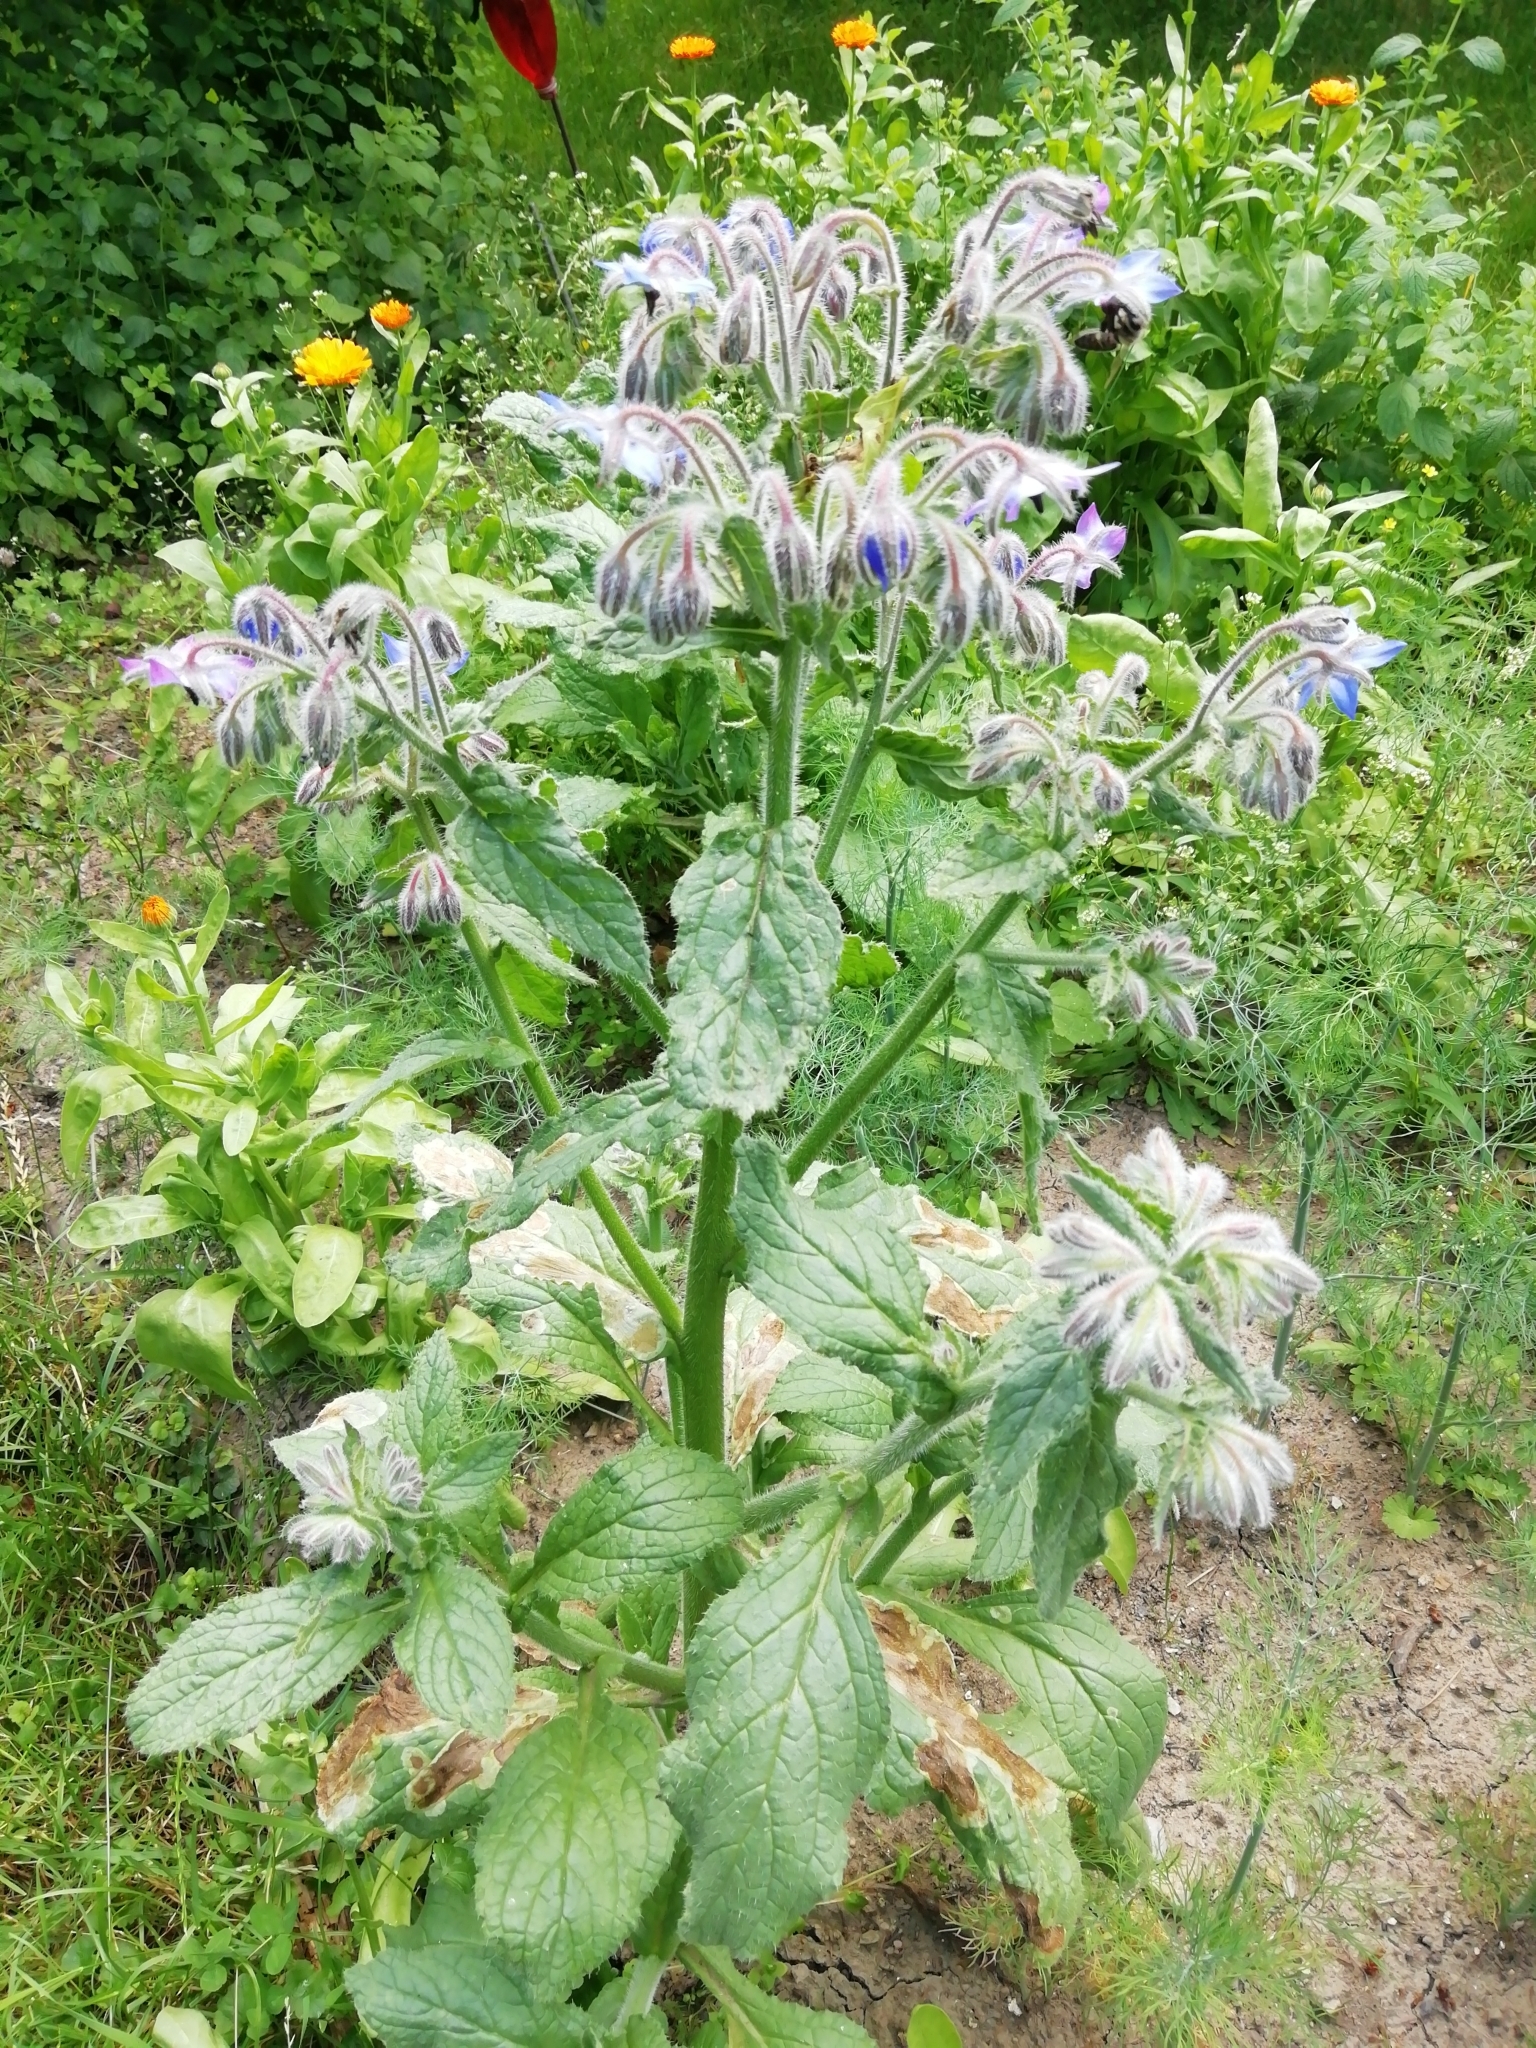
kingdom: Plantae
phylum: Tracheophyta
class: Magnoliopsida
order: Boraginales
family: Boraginaceae
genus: Borago
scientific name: Borago officinalis
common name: Borage
